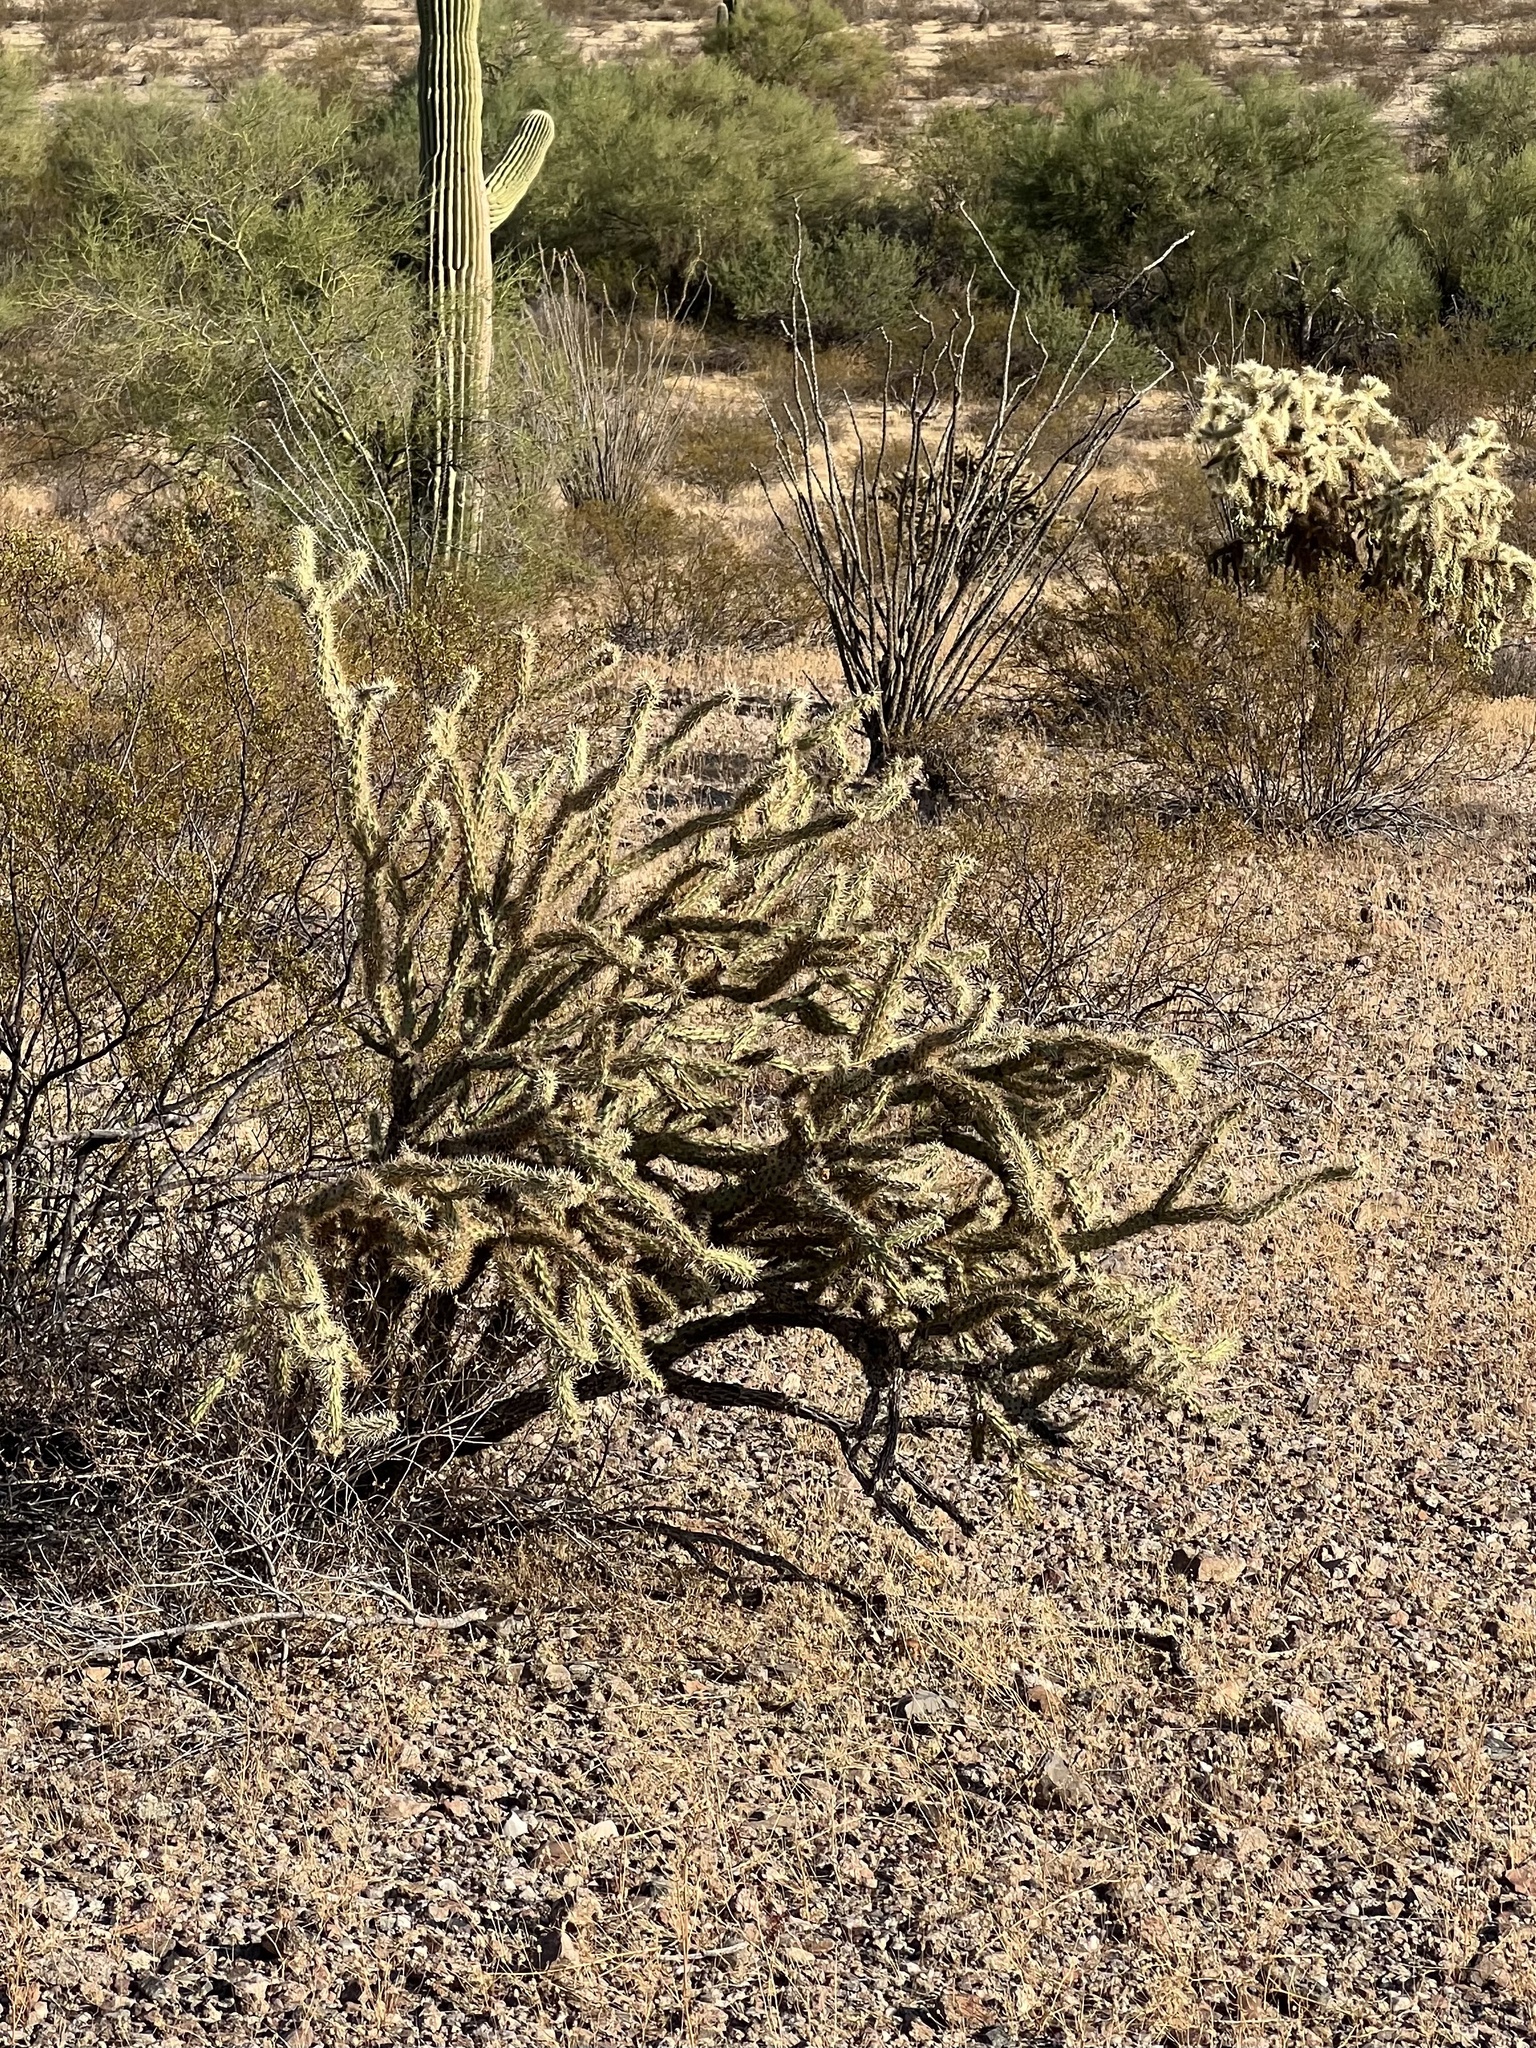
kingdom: Plantae
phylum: Tracheophyta
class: Magnoliopsida
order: Caryophyllales
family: Cactaceae
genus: Cylindropuntia
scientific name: Cylindropuntia acanthocarpa
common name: Buckhorn cholla
